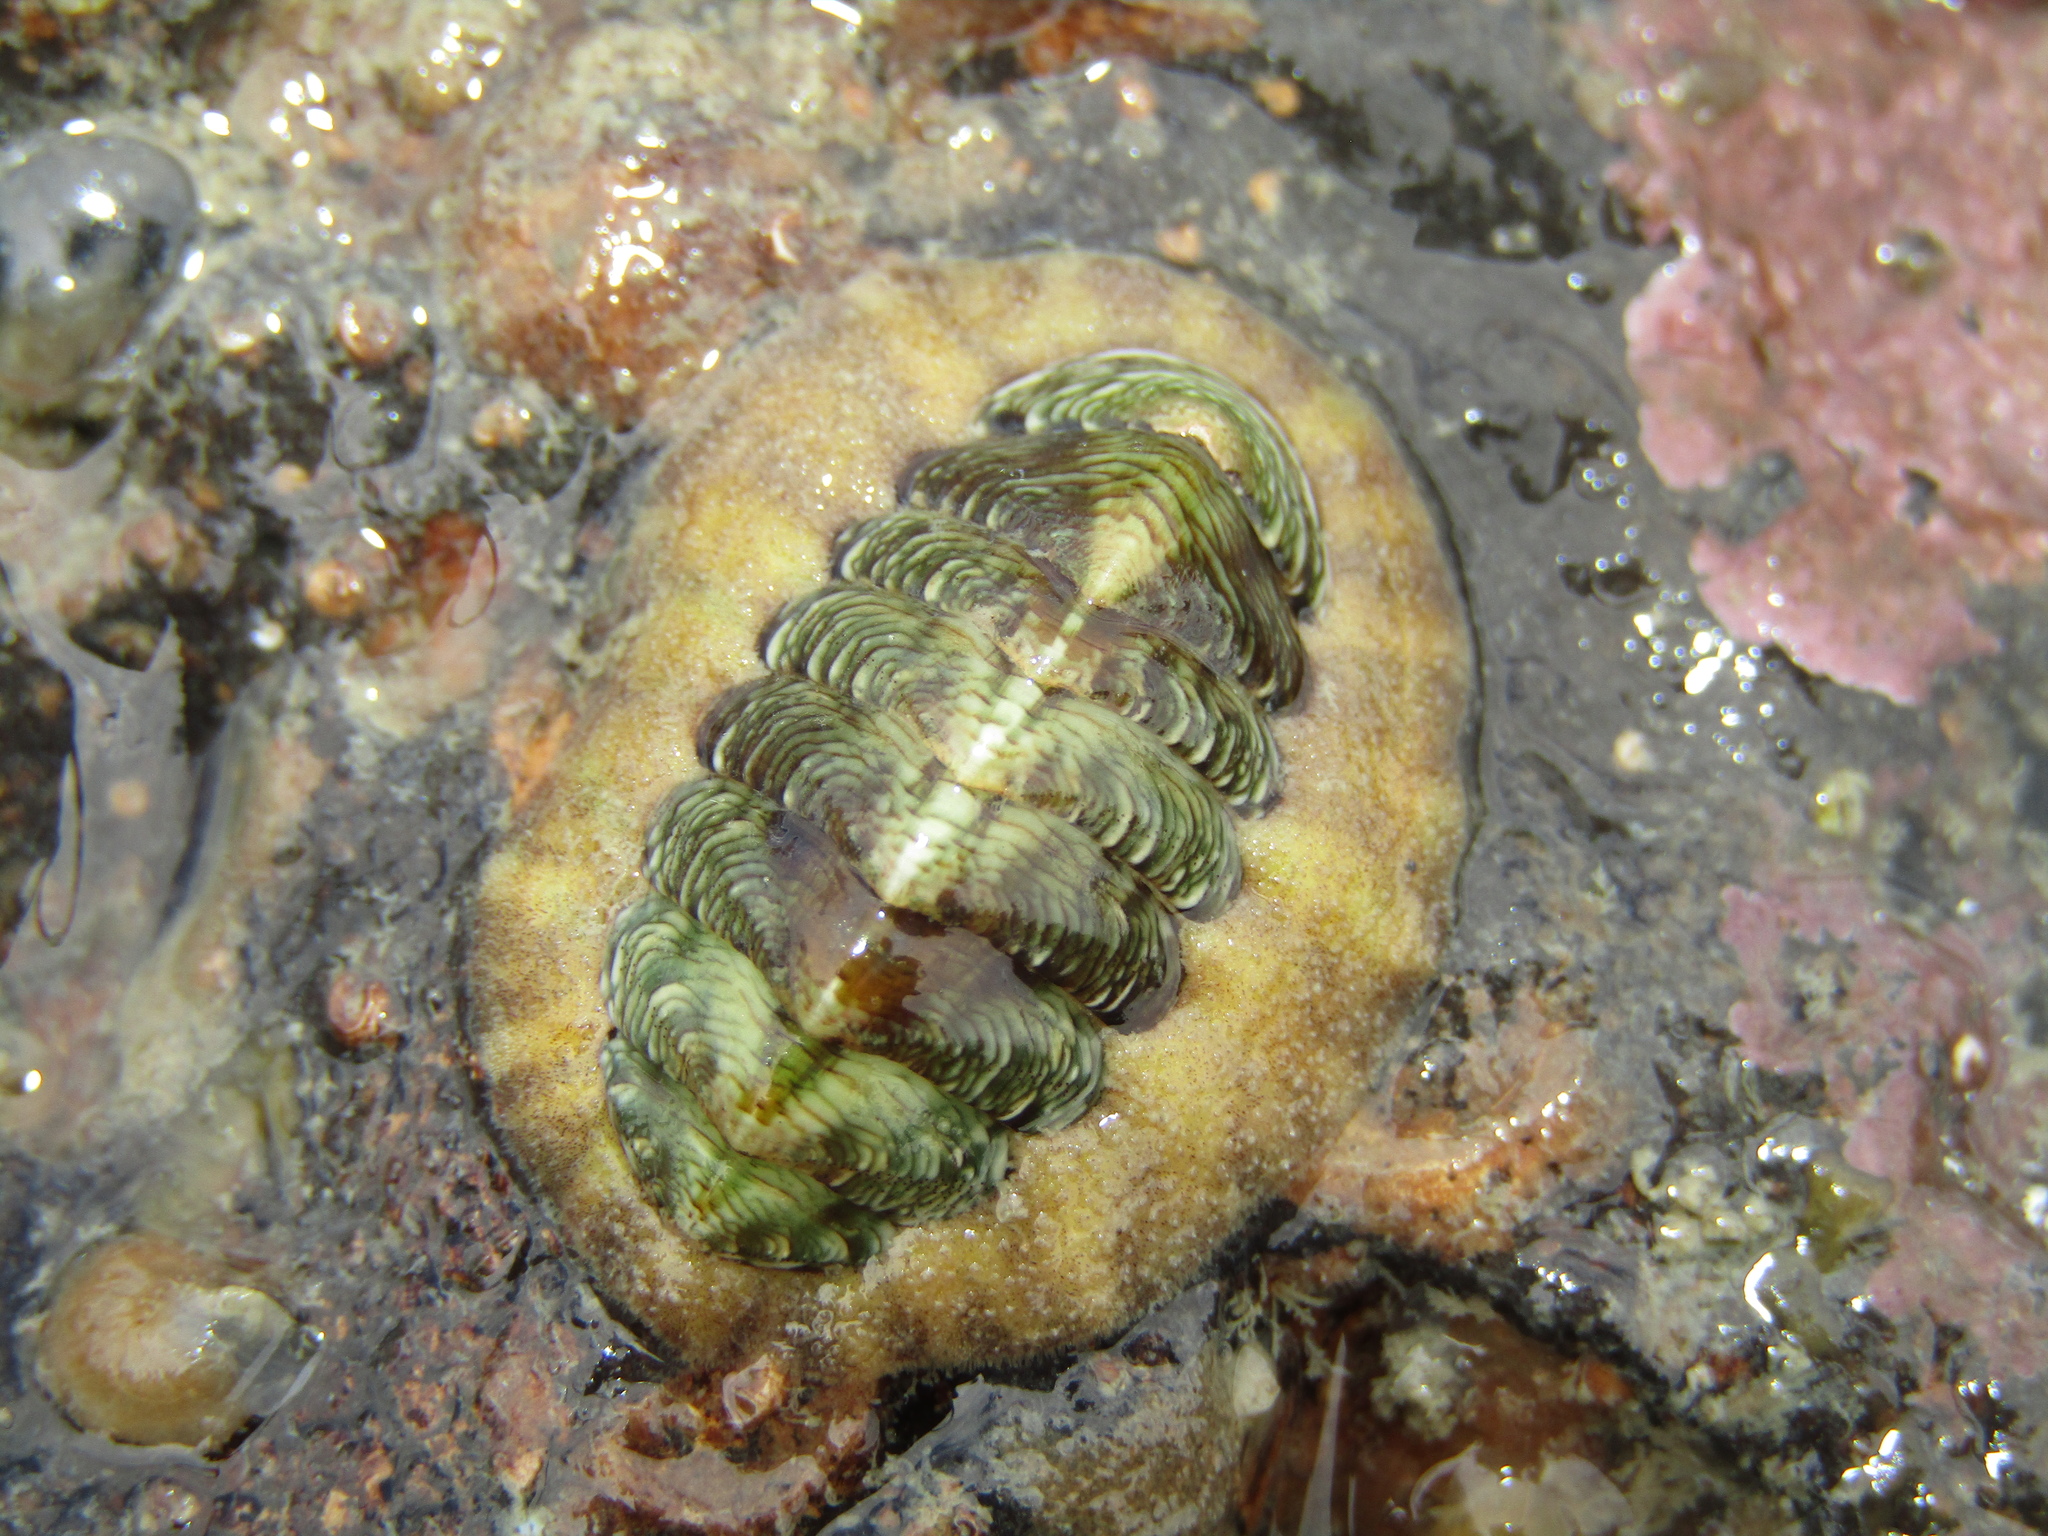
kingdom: Animalia
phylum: Mollusca
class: Polyplacophora
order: Chitonida
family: Chitonidae
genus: Onithochiton
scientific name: Onithochiton neglectus
